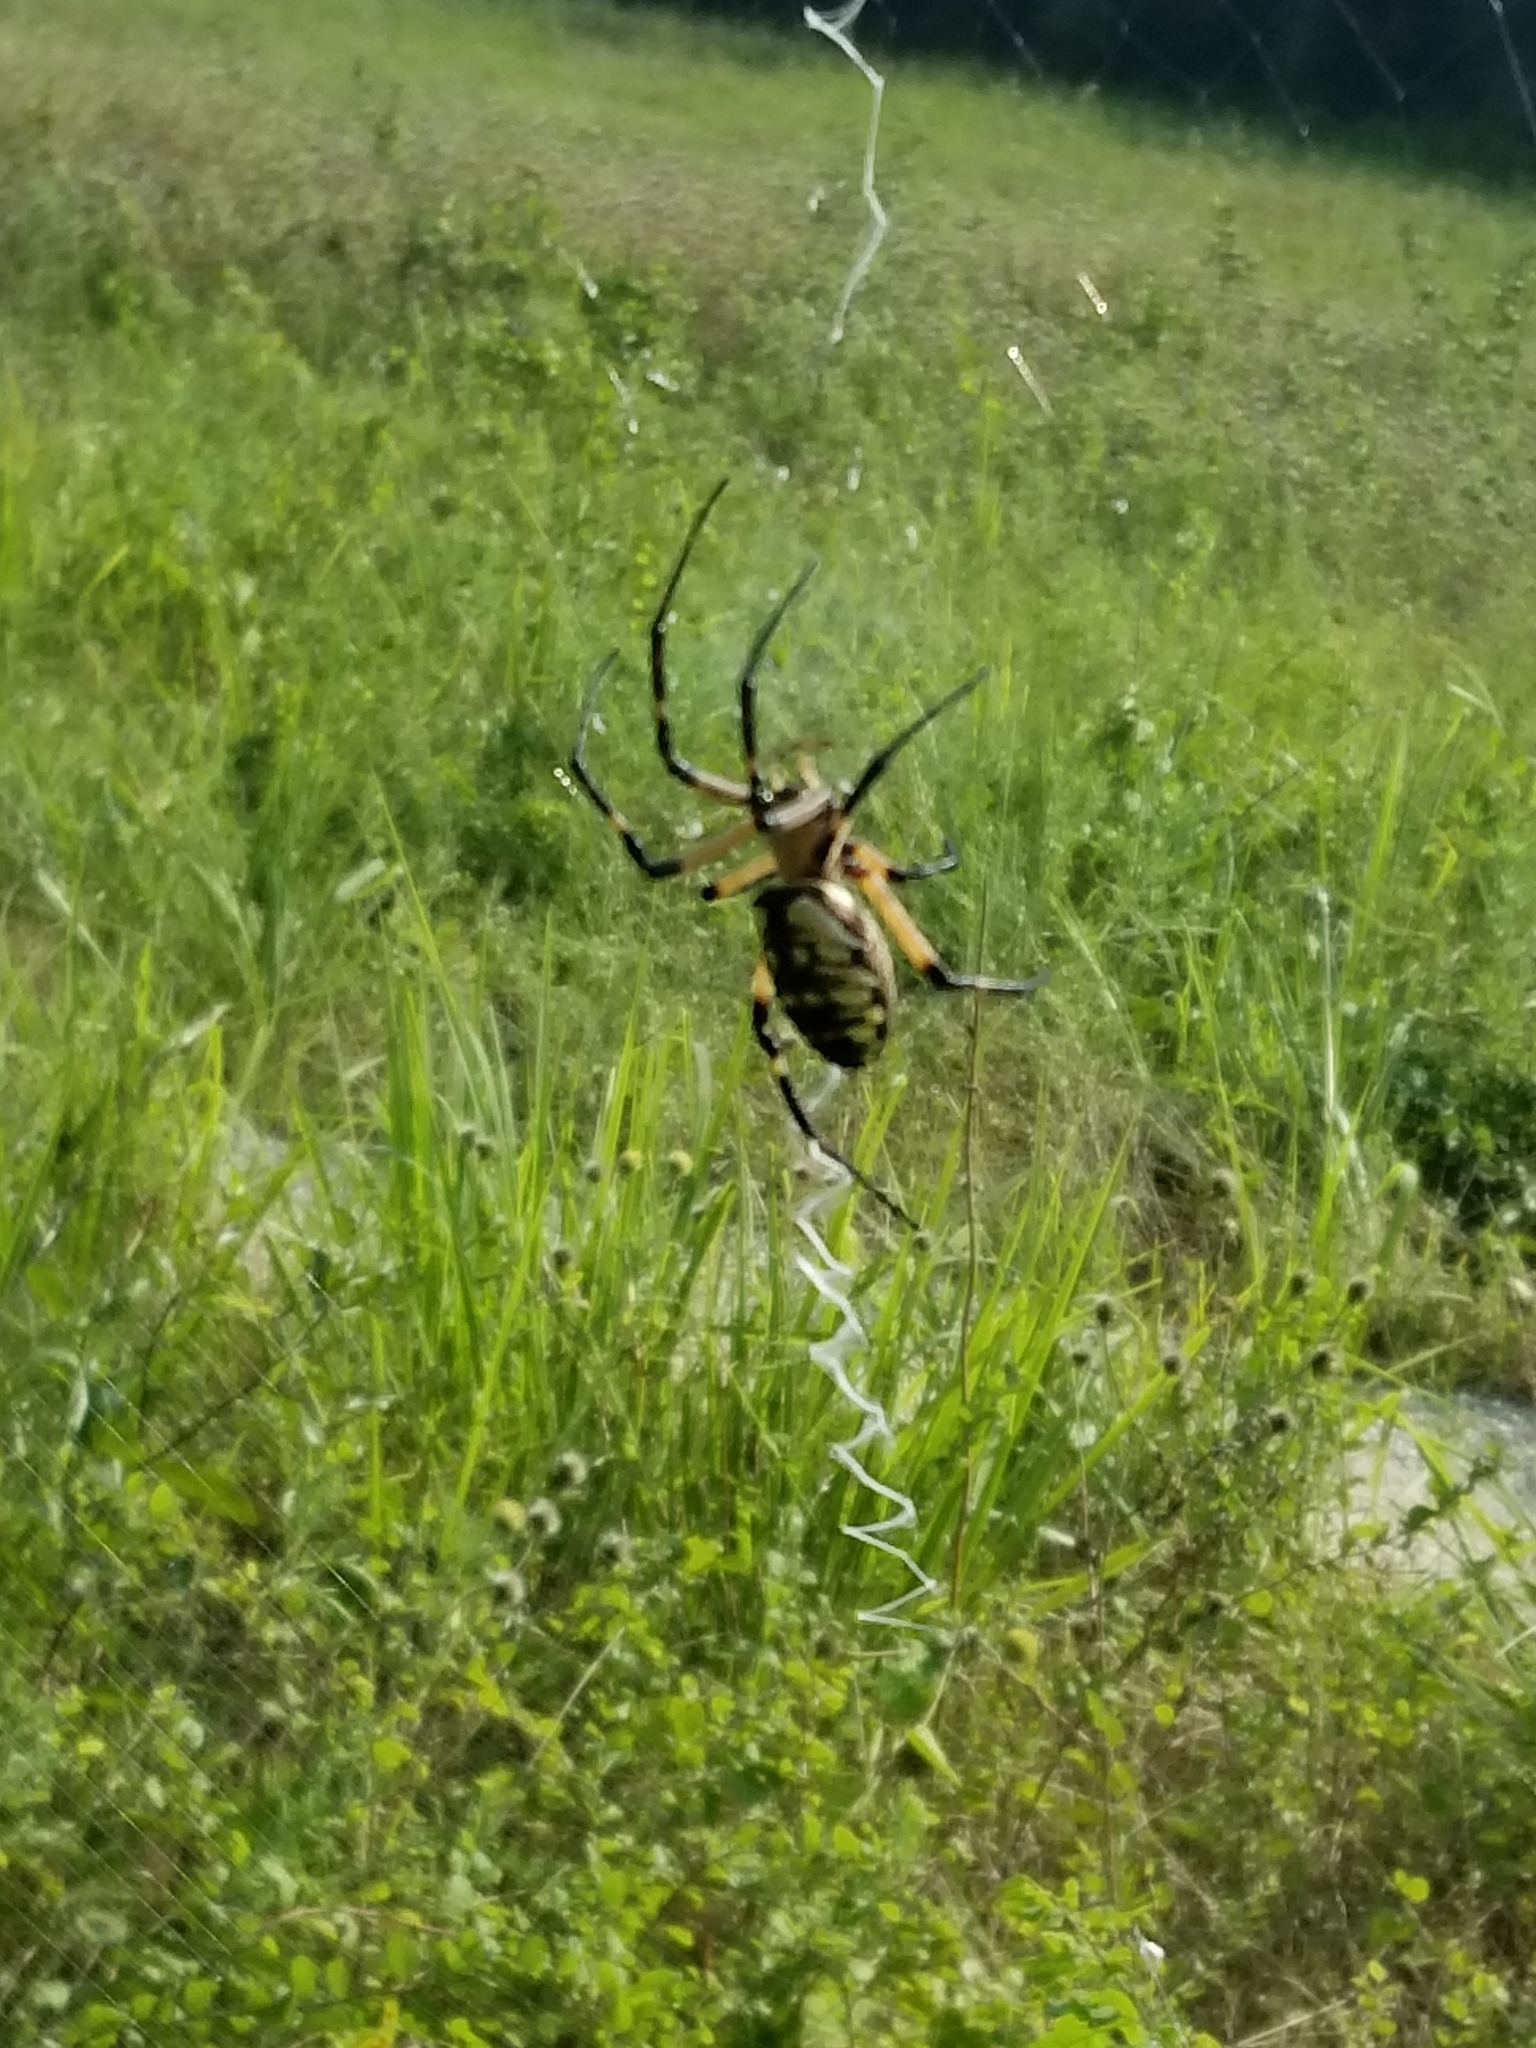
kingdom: Animalia
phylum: Arthropoda
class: Arachnida
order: Araneae
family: Araneidae
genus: Argiope
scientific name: Argiope aurantia
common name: Orb weavers
